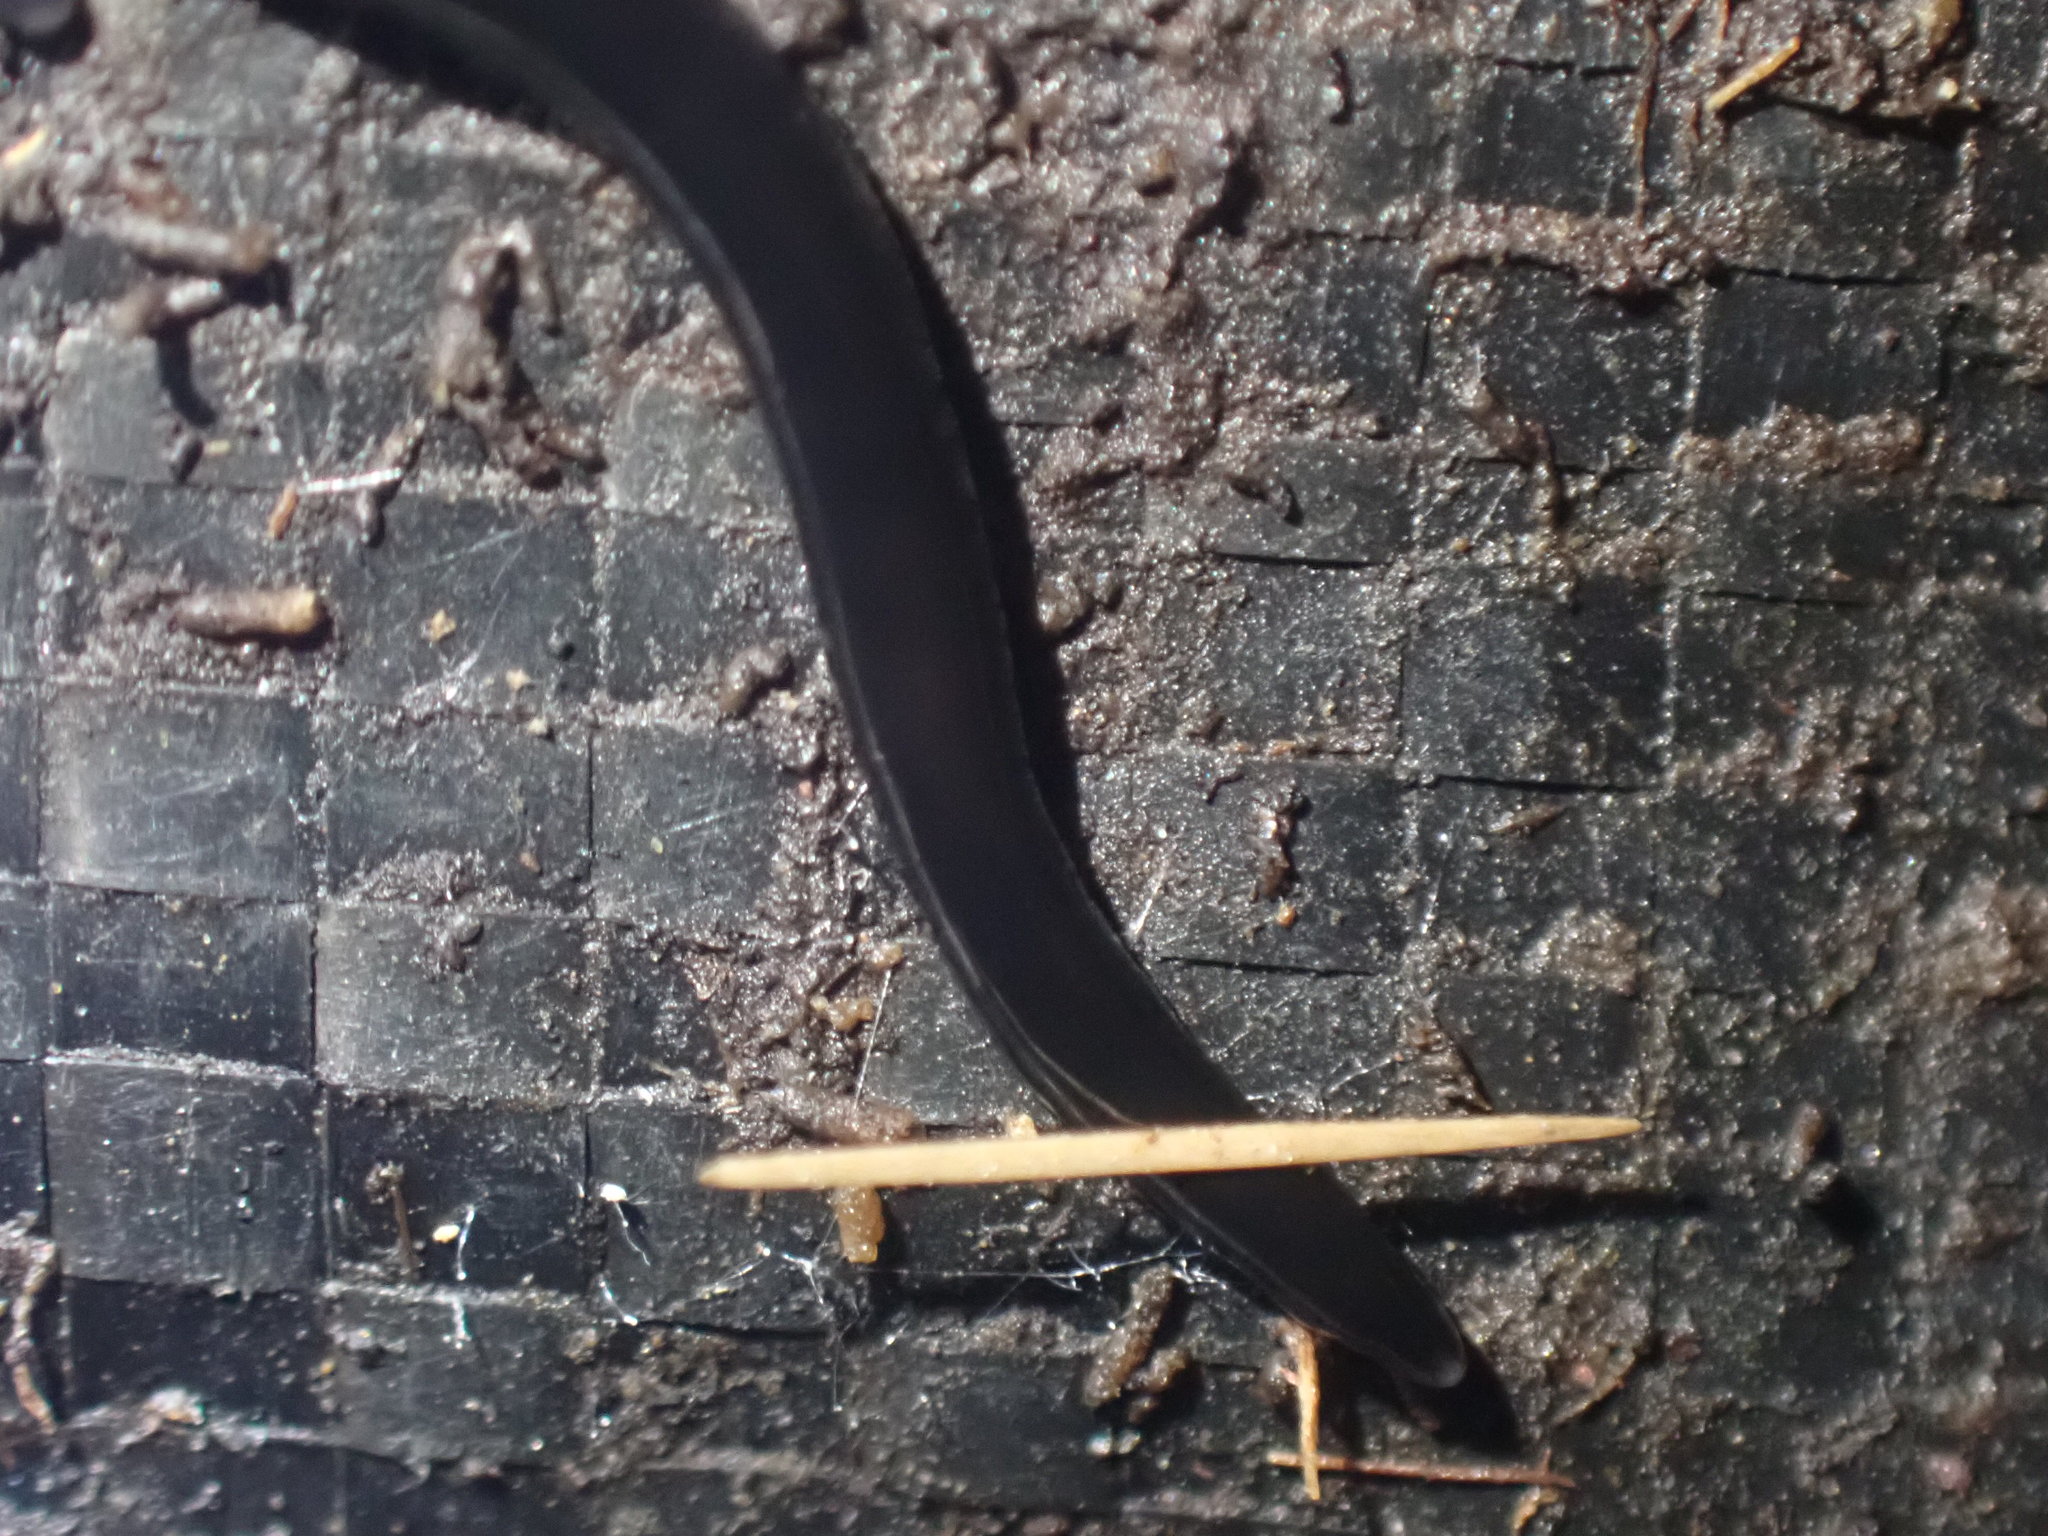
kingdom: Animalia
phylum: Platyhelminthes
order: Tricladida
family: Geoplanidae
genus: Parakontikia
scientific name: Parakontikia ventrolineata
